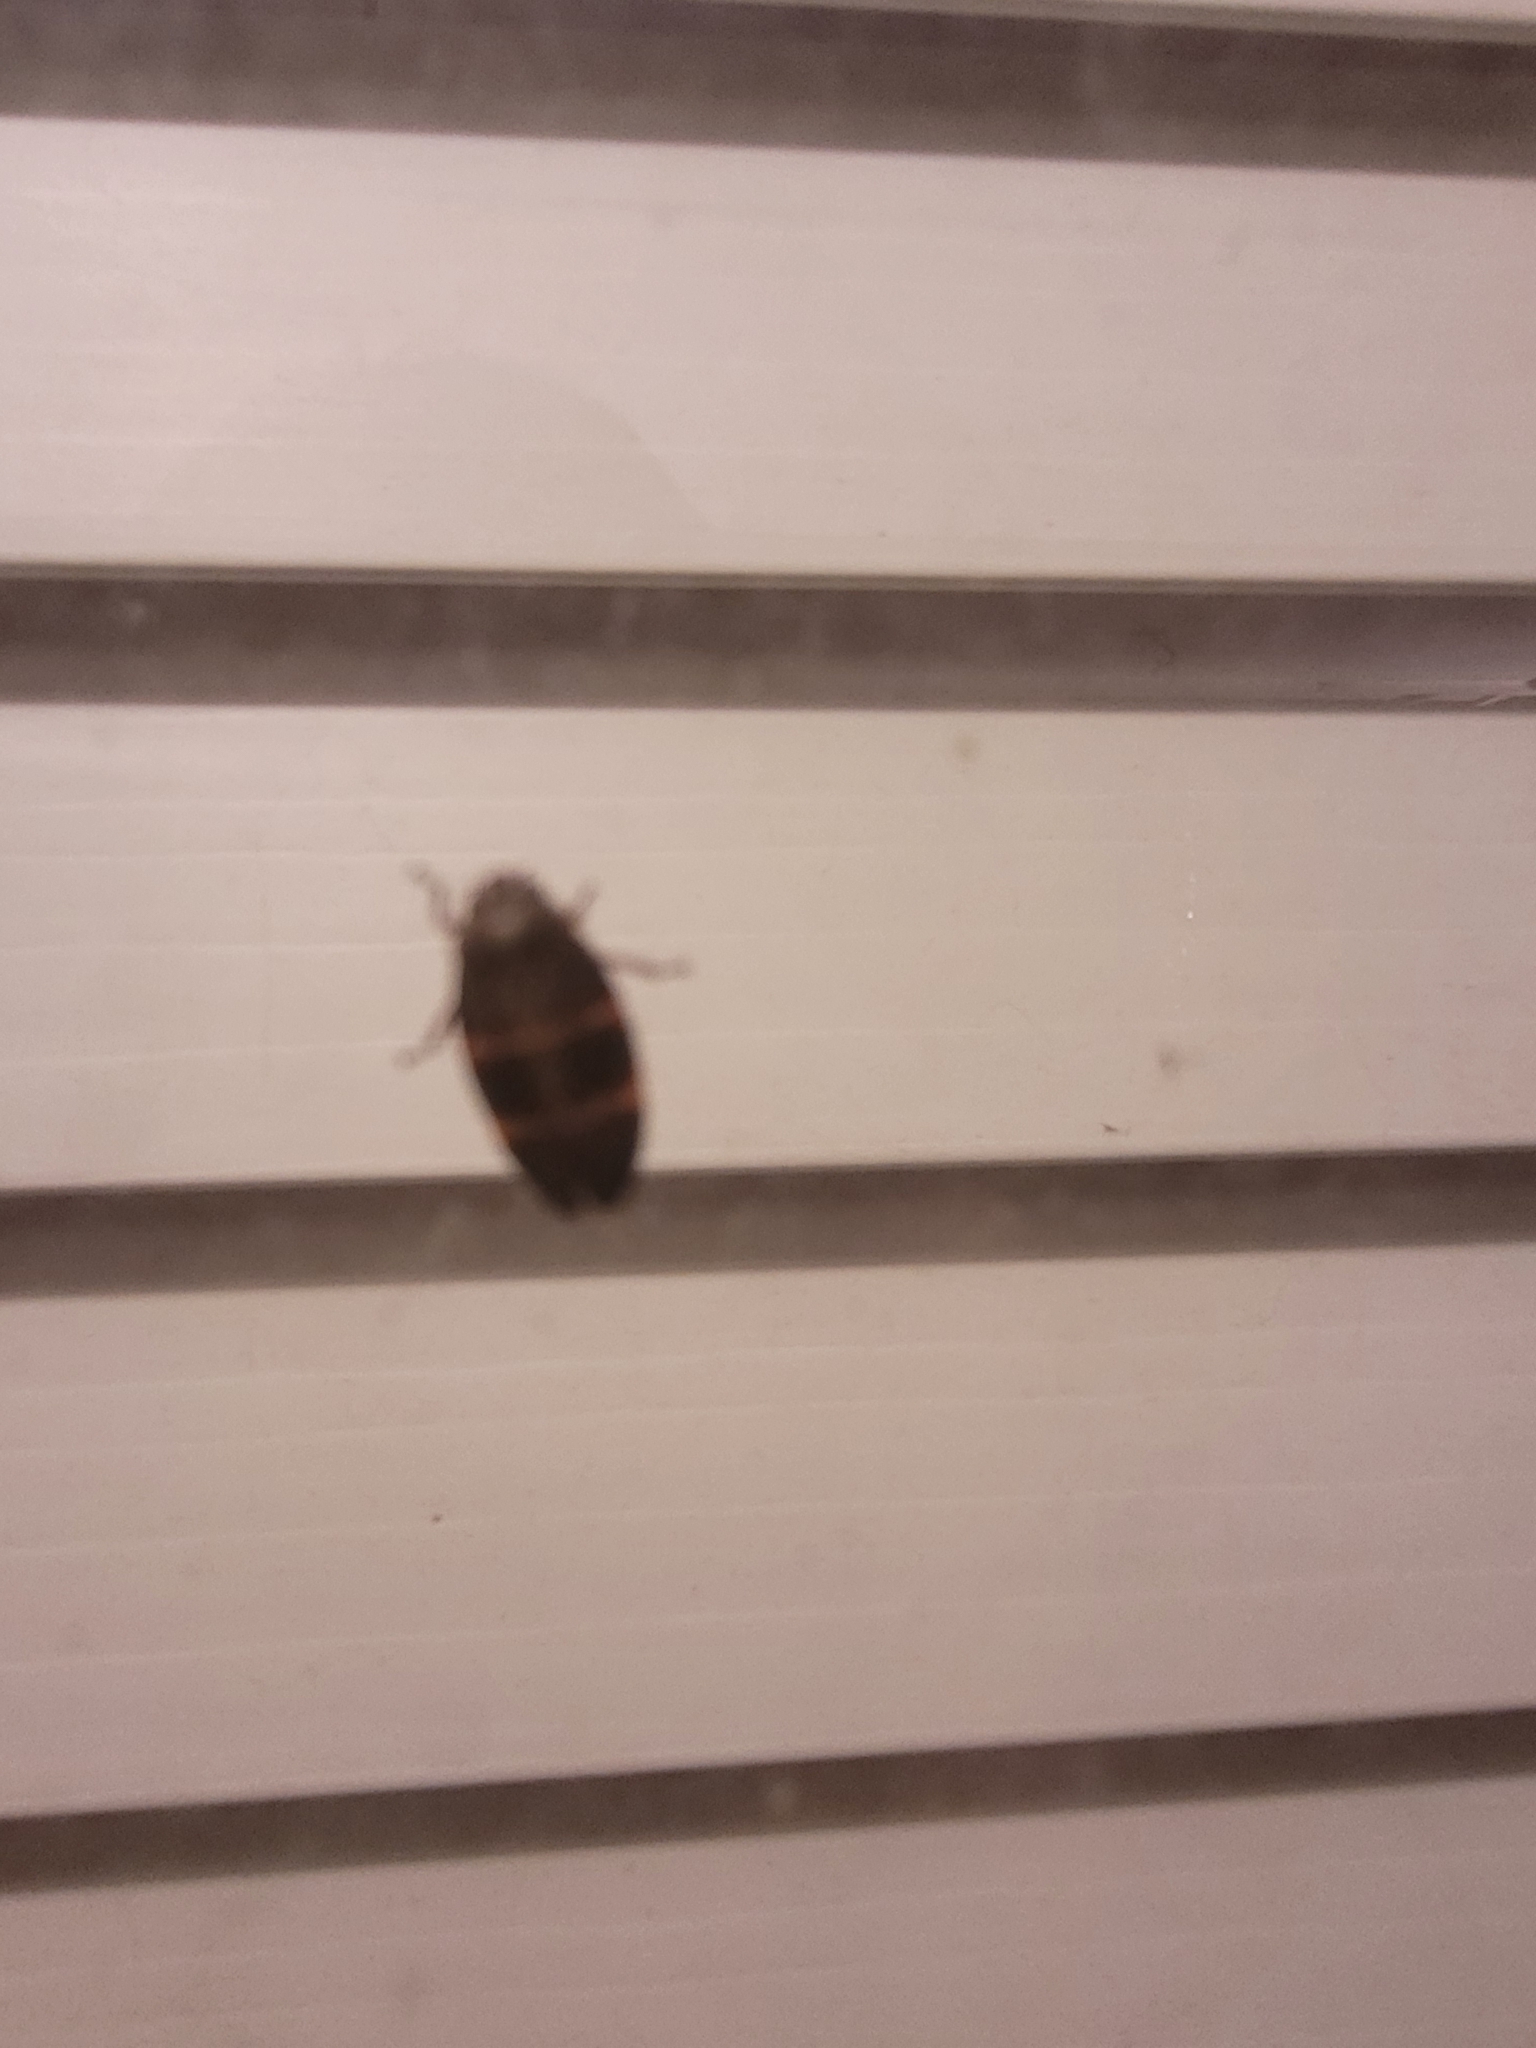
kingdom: Animalia
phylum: Arthropoda
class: Insecta
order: Hemiptera
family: Cercopidae
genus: Prosapia
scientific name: Prosapia bicincta
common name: Twolined spittlebug
